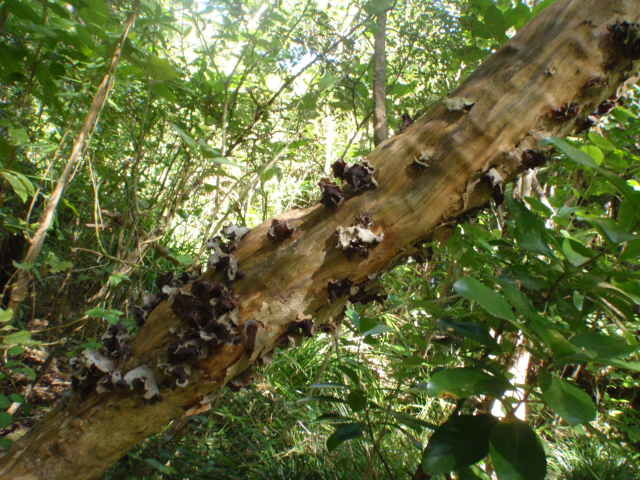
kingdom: Fungi
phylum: Basidiomycota
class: Agaricomycetes
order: Auriculariales
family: Auriculariaceae
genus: Auricularia
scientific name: Auricularia cornea
